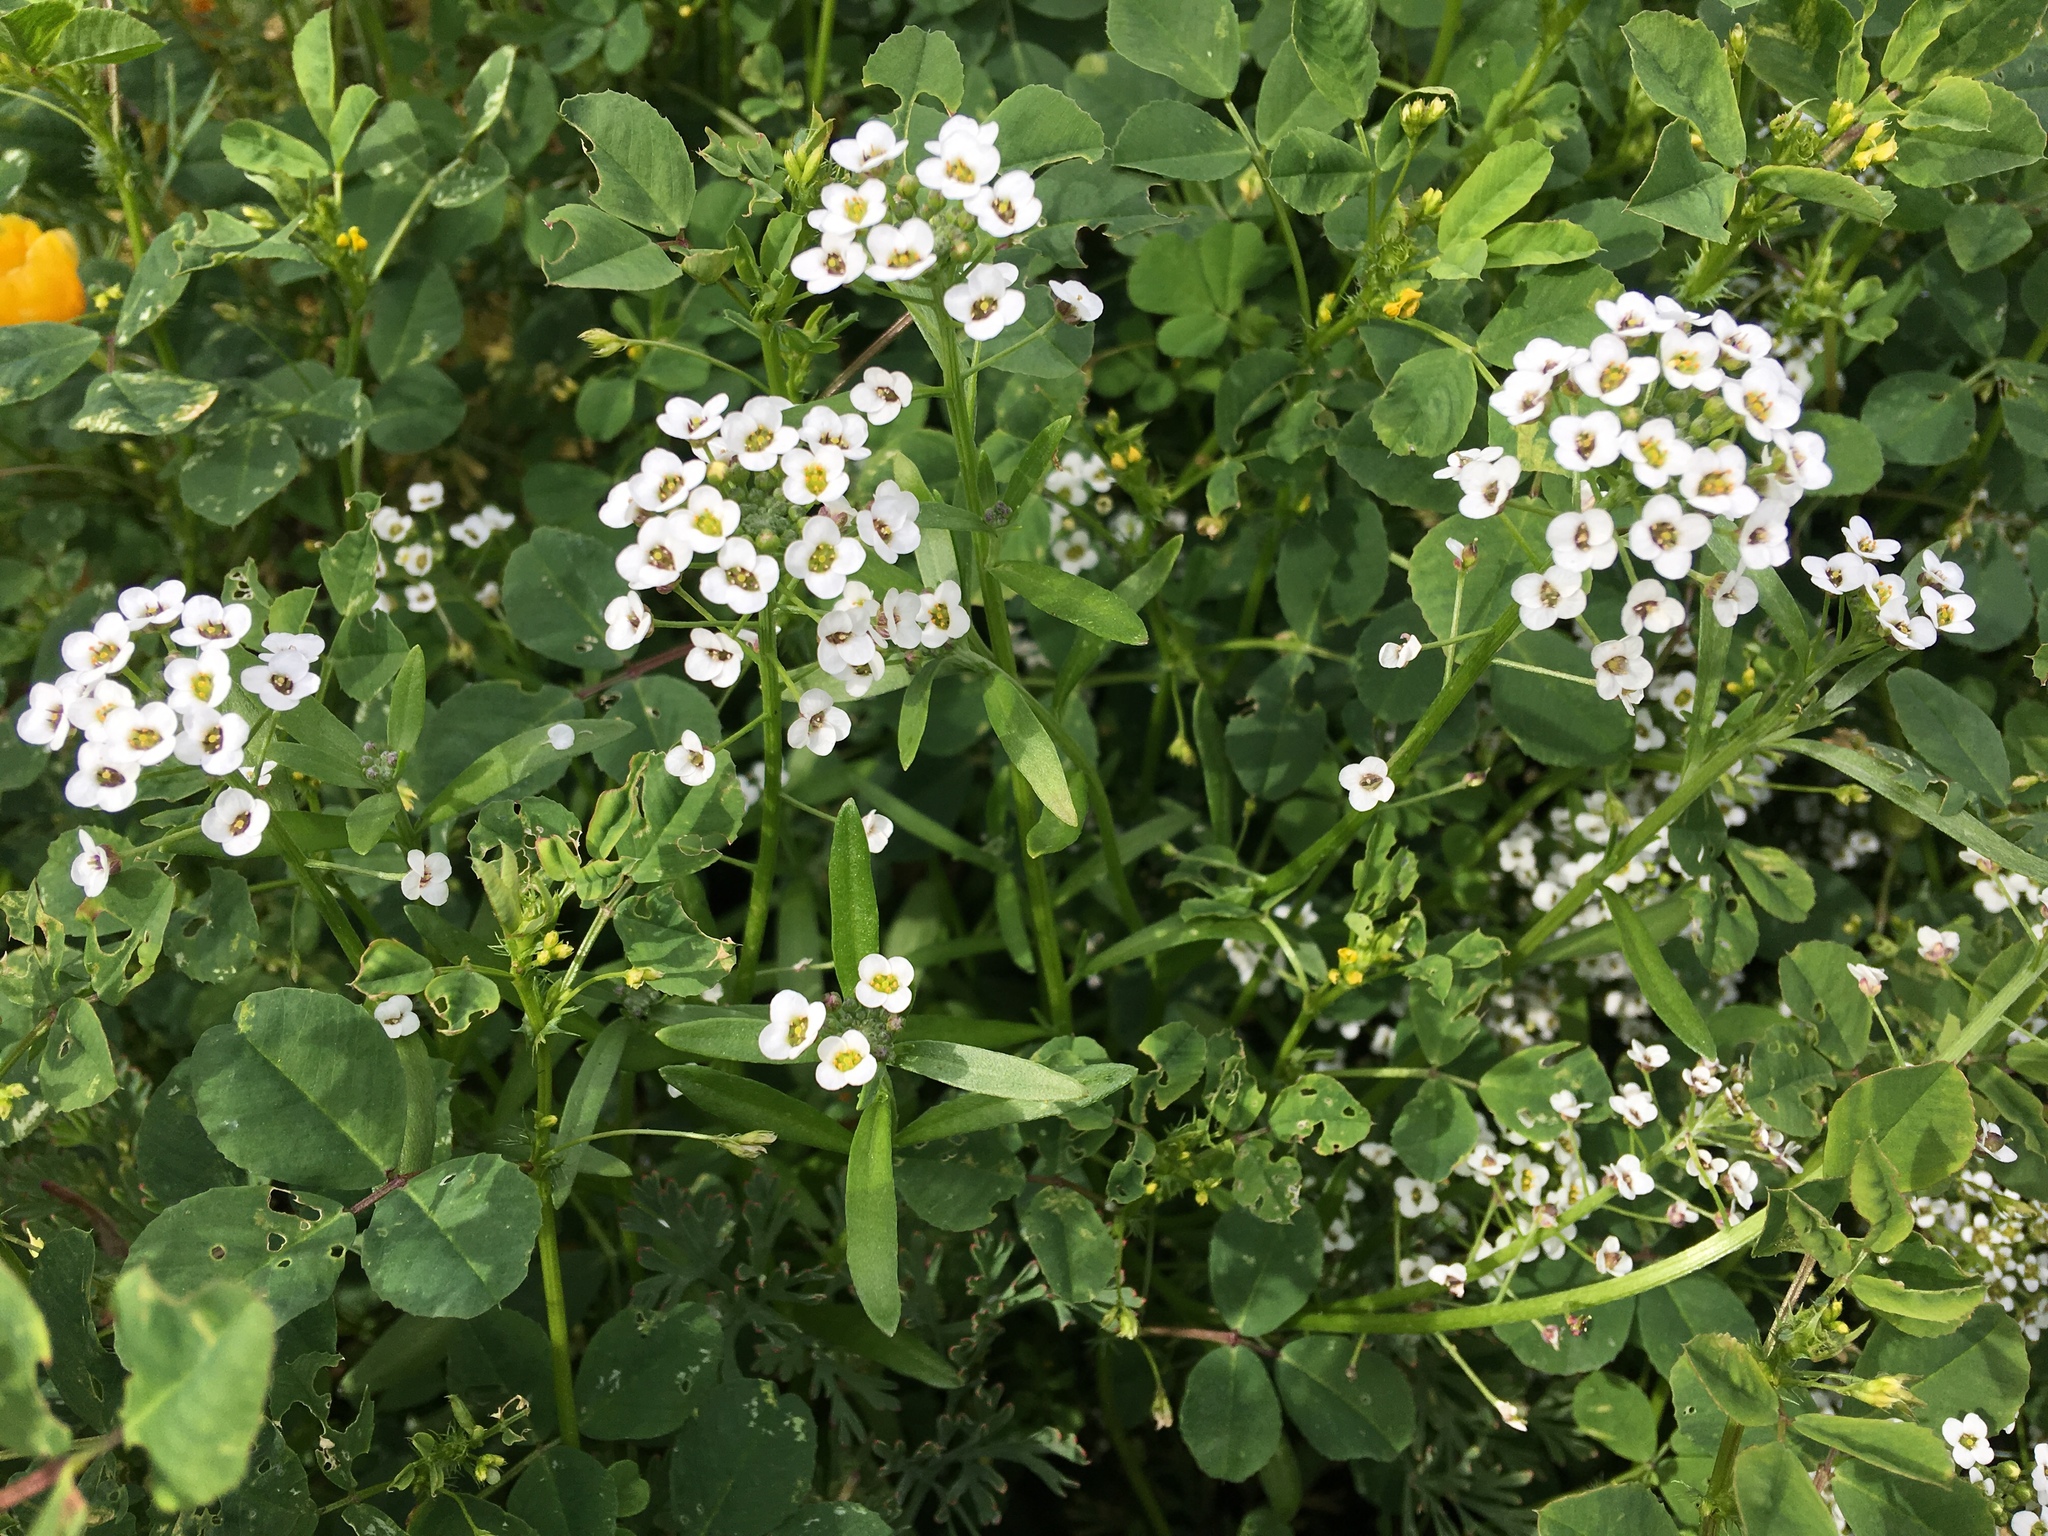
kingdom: Plantae
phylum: Tracheophyta
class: Magnoliopsida
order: Brassicales
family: Brassicaceae
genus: Lobularia
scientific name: Lobularia maritima
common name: Sweet alison
